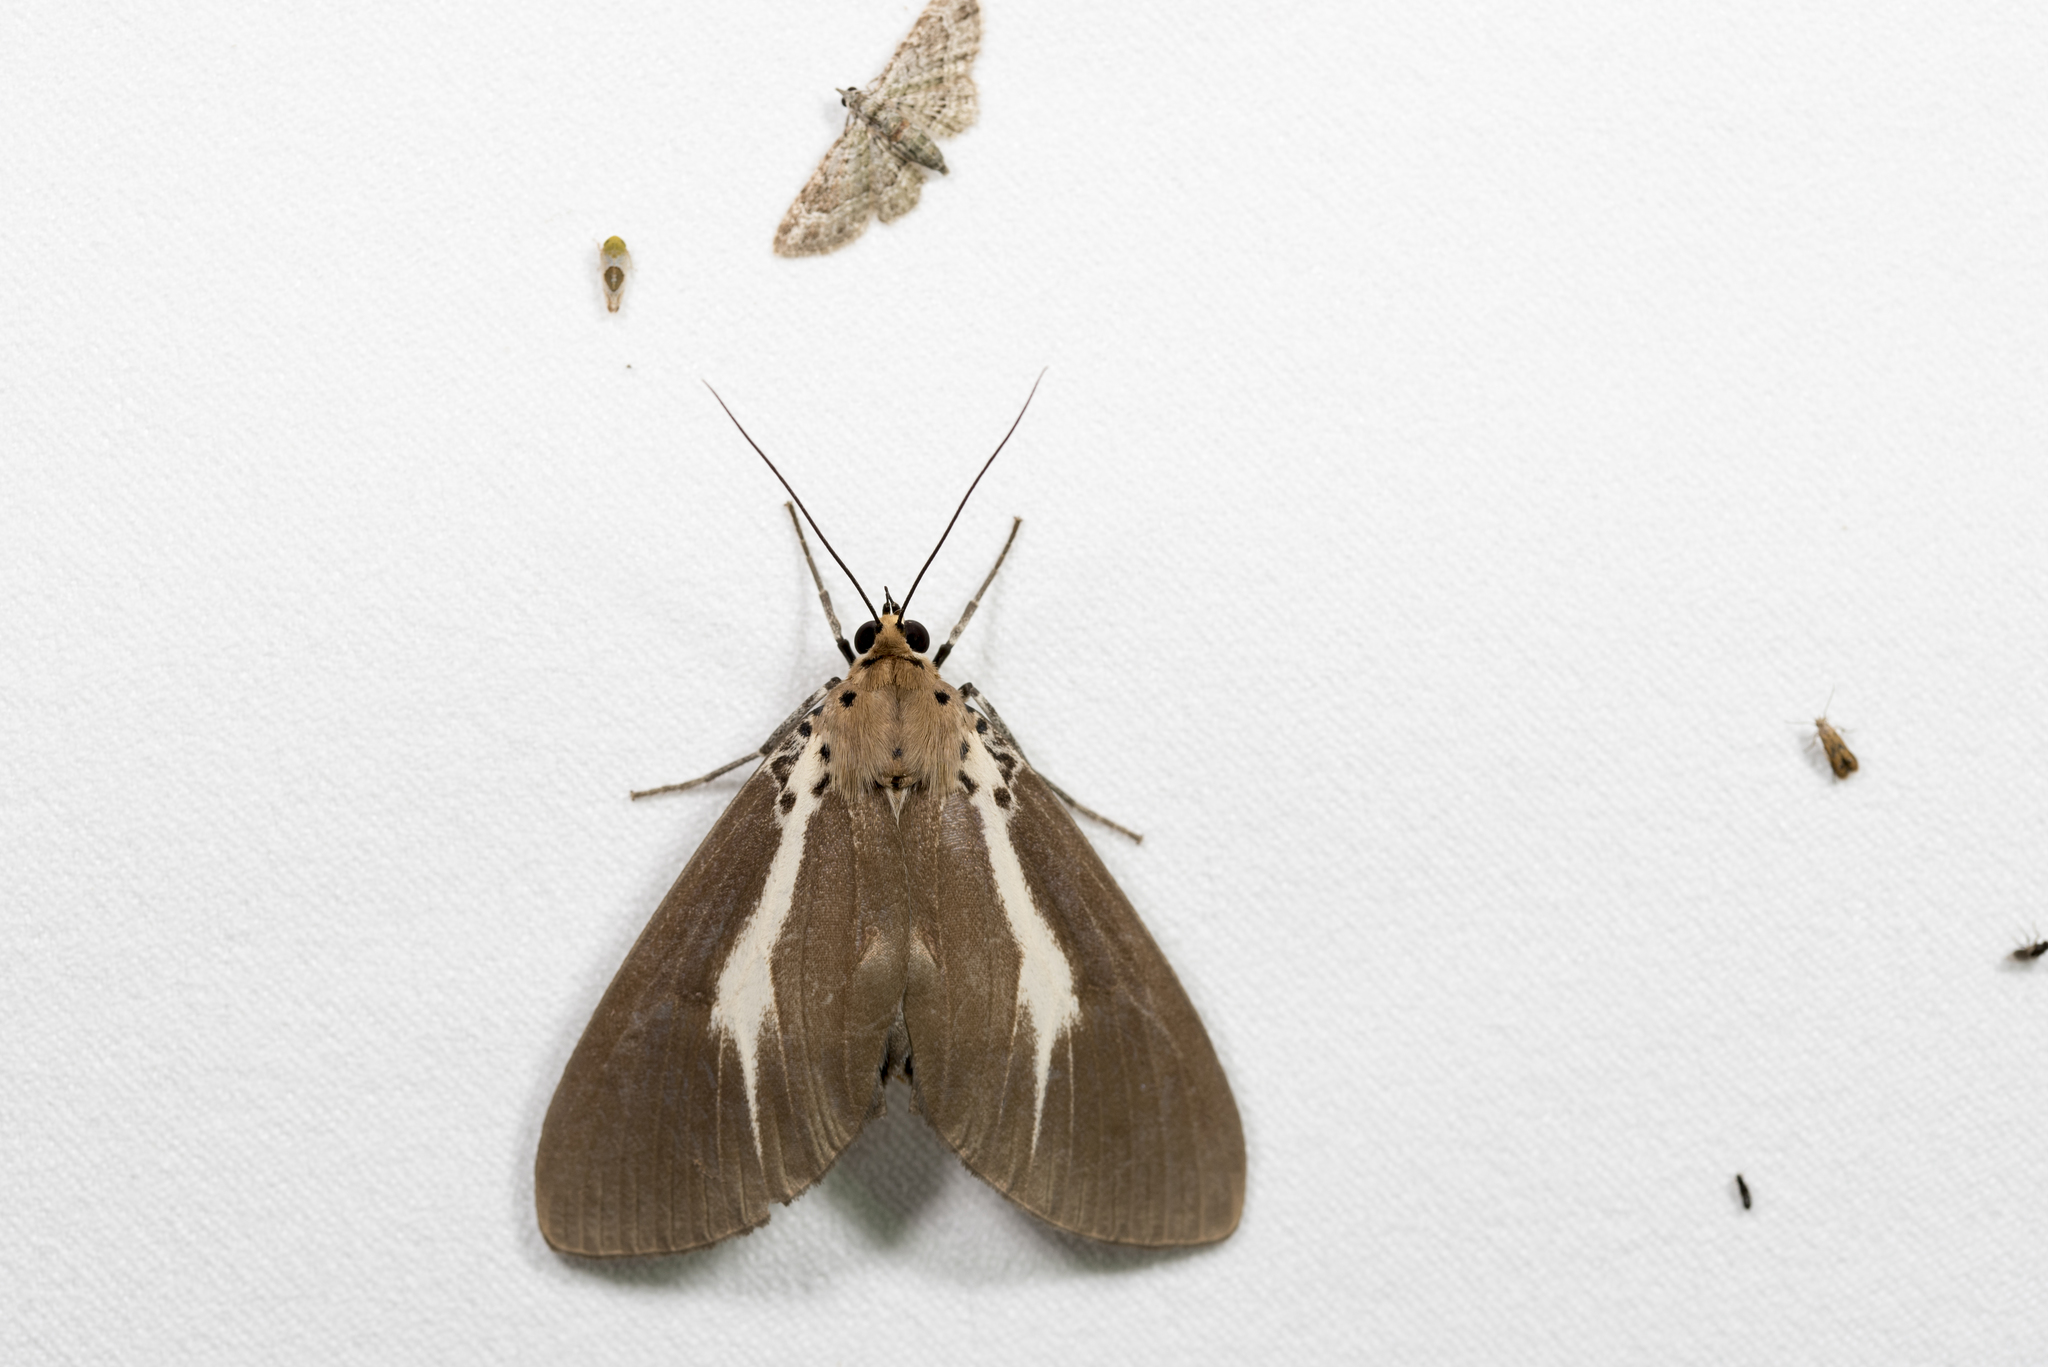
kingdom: Animalia
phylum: Arthropoda
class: Insecta
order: Lepidoptera
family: Erebidae
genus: Asota
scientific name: Asota heliconia
